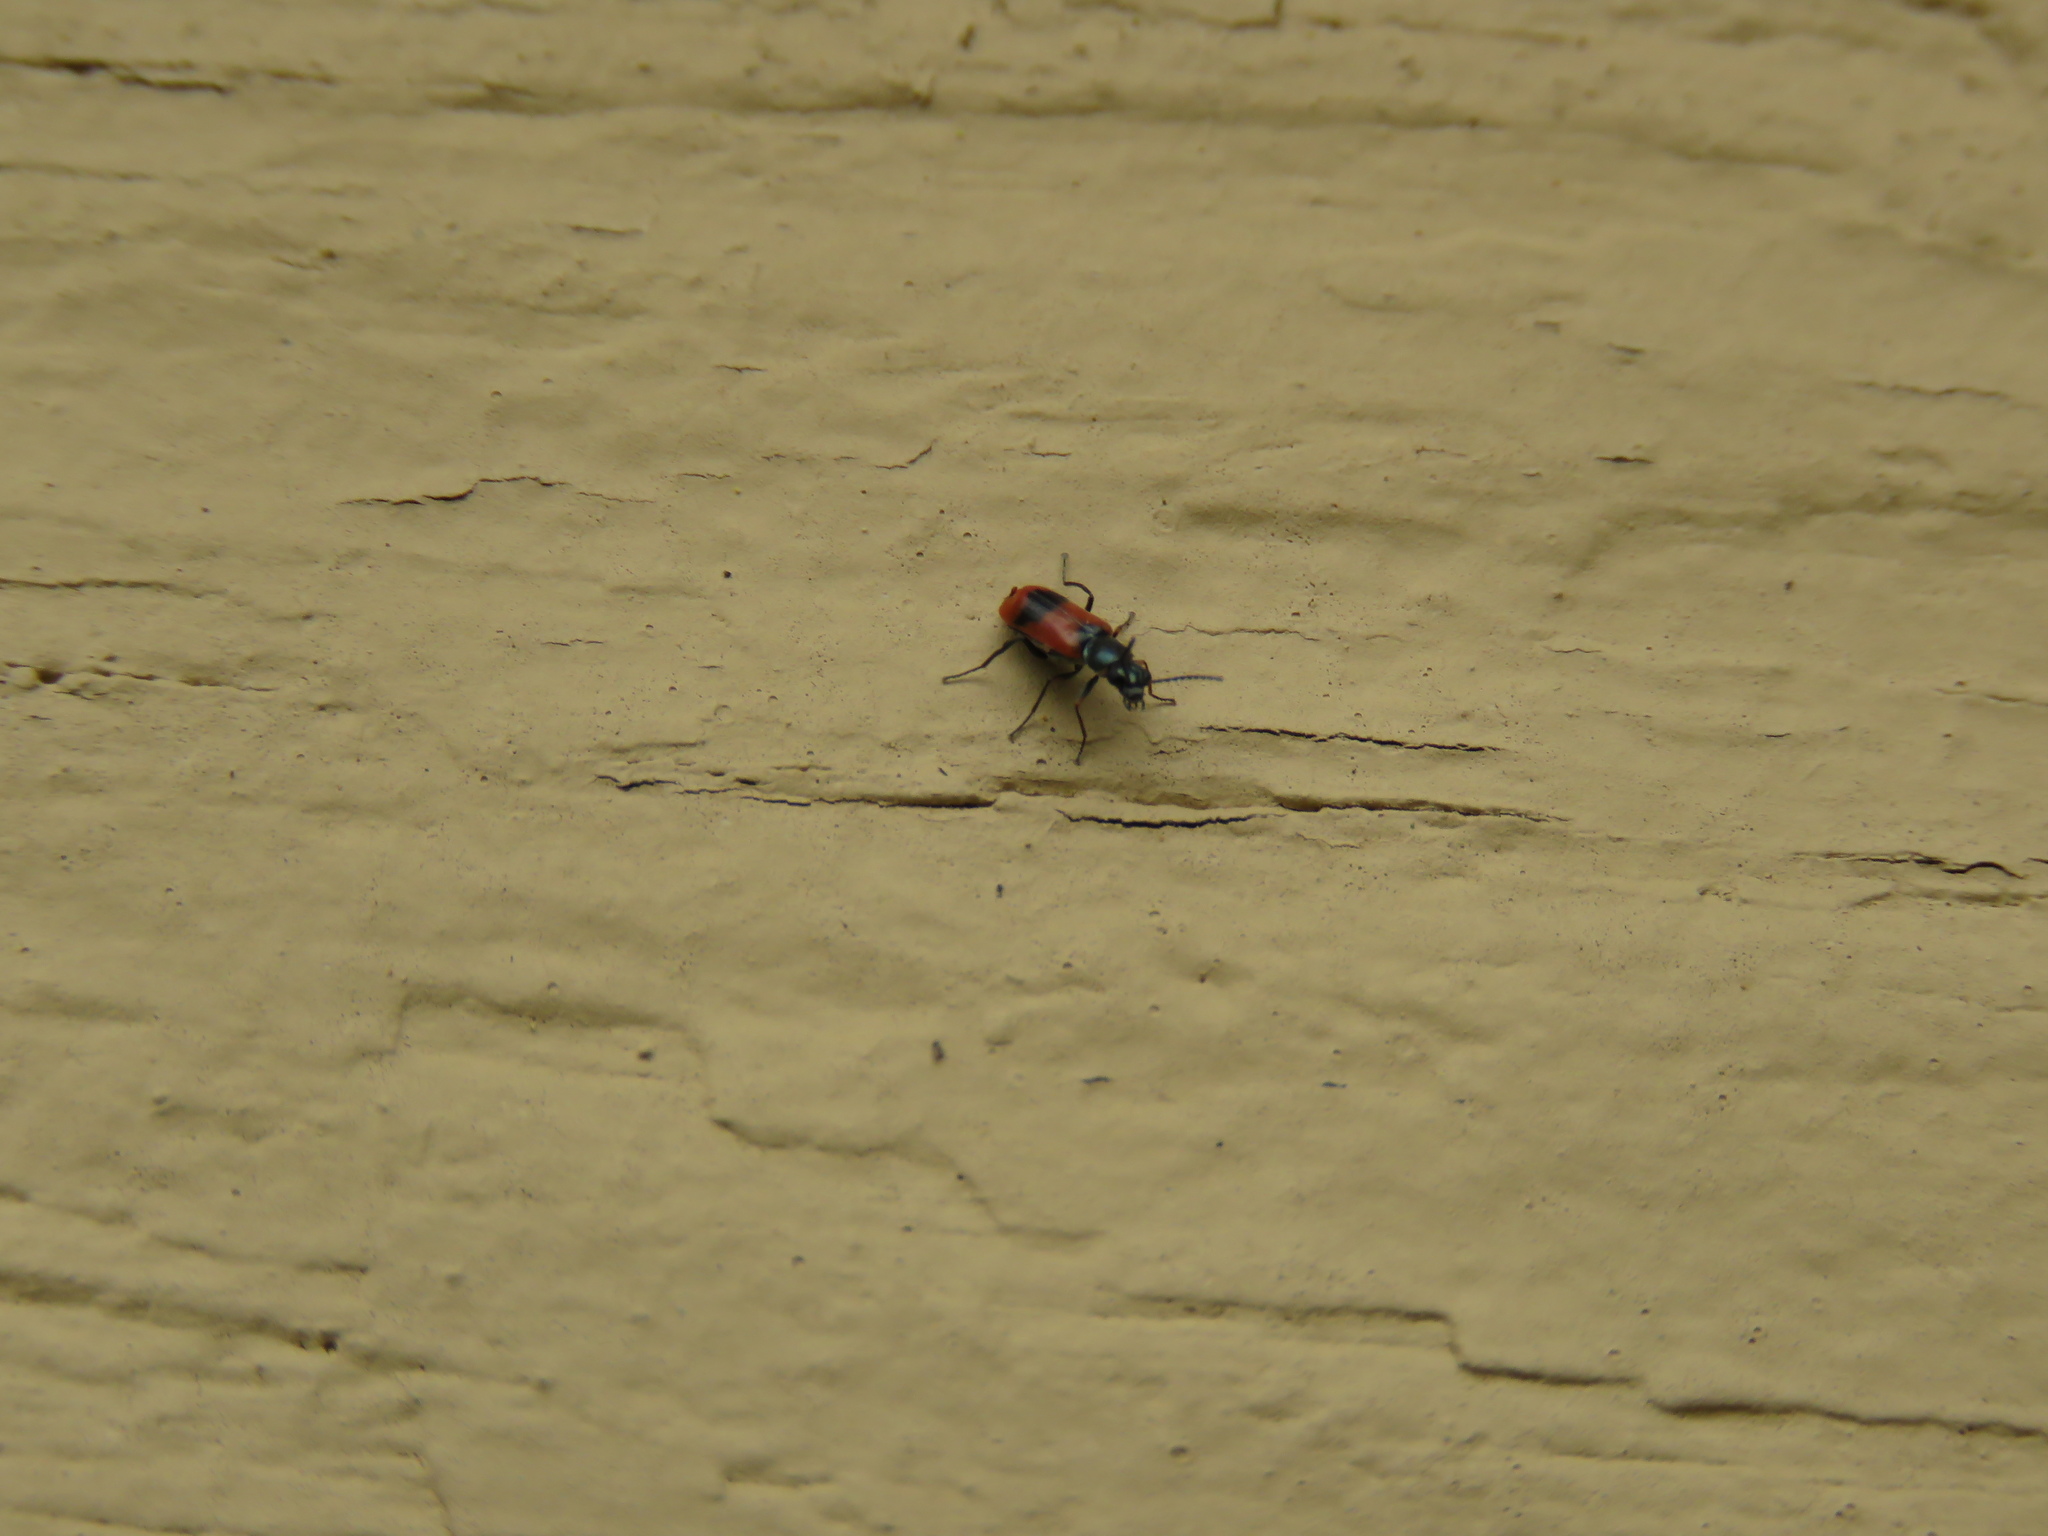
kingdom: Animalia
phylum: Arthropoda
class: Insecta
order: Coleoptera
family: Melyridae
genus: Anthocomus
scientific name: Anthocomus equestris
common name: Black-banded soft-winged flower beetle
